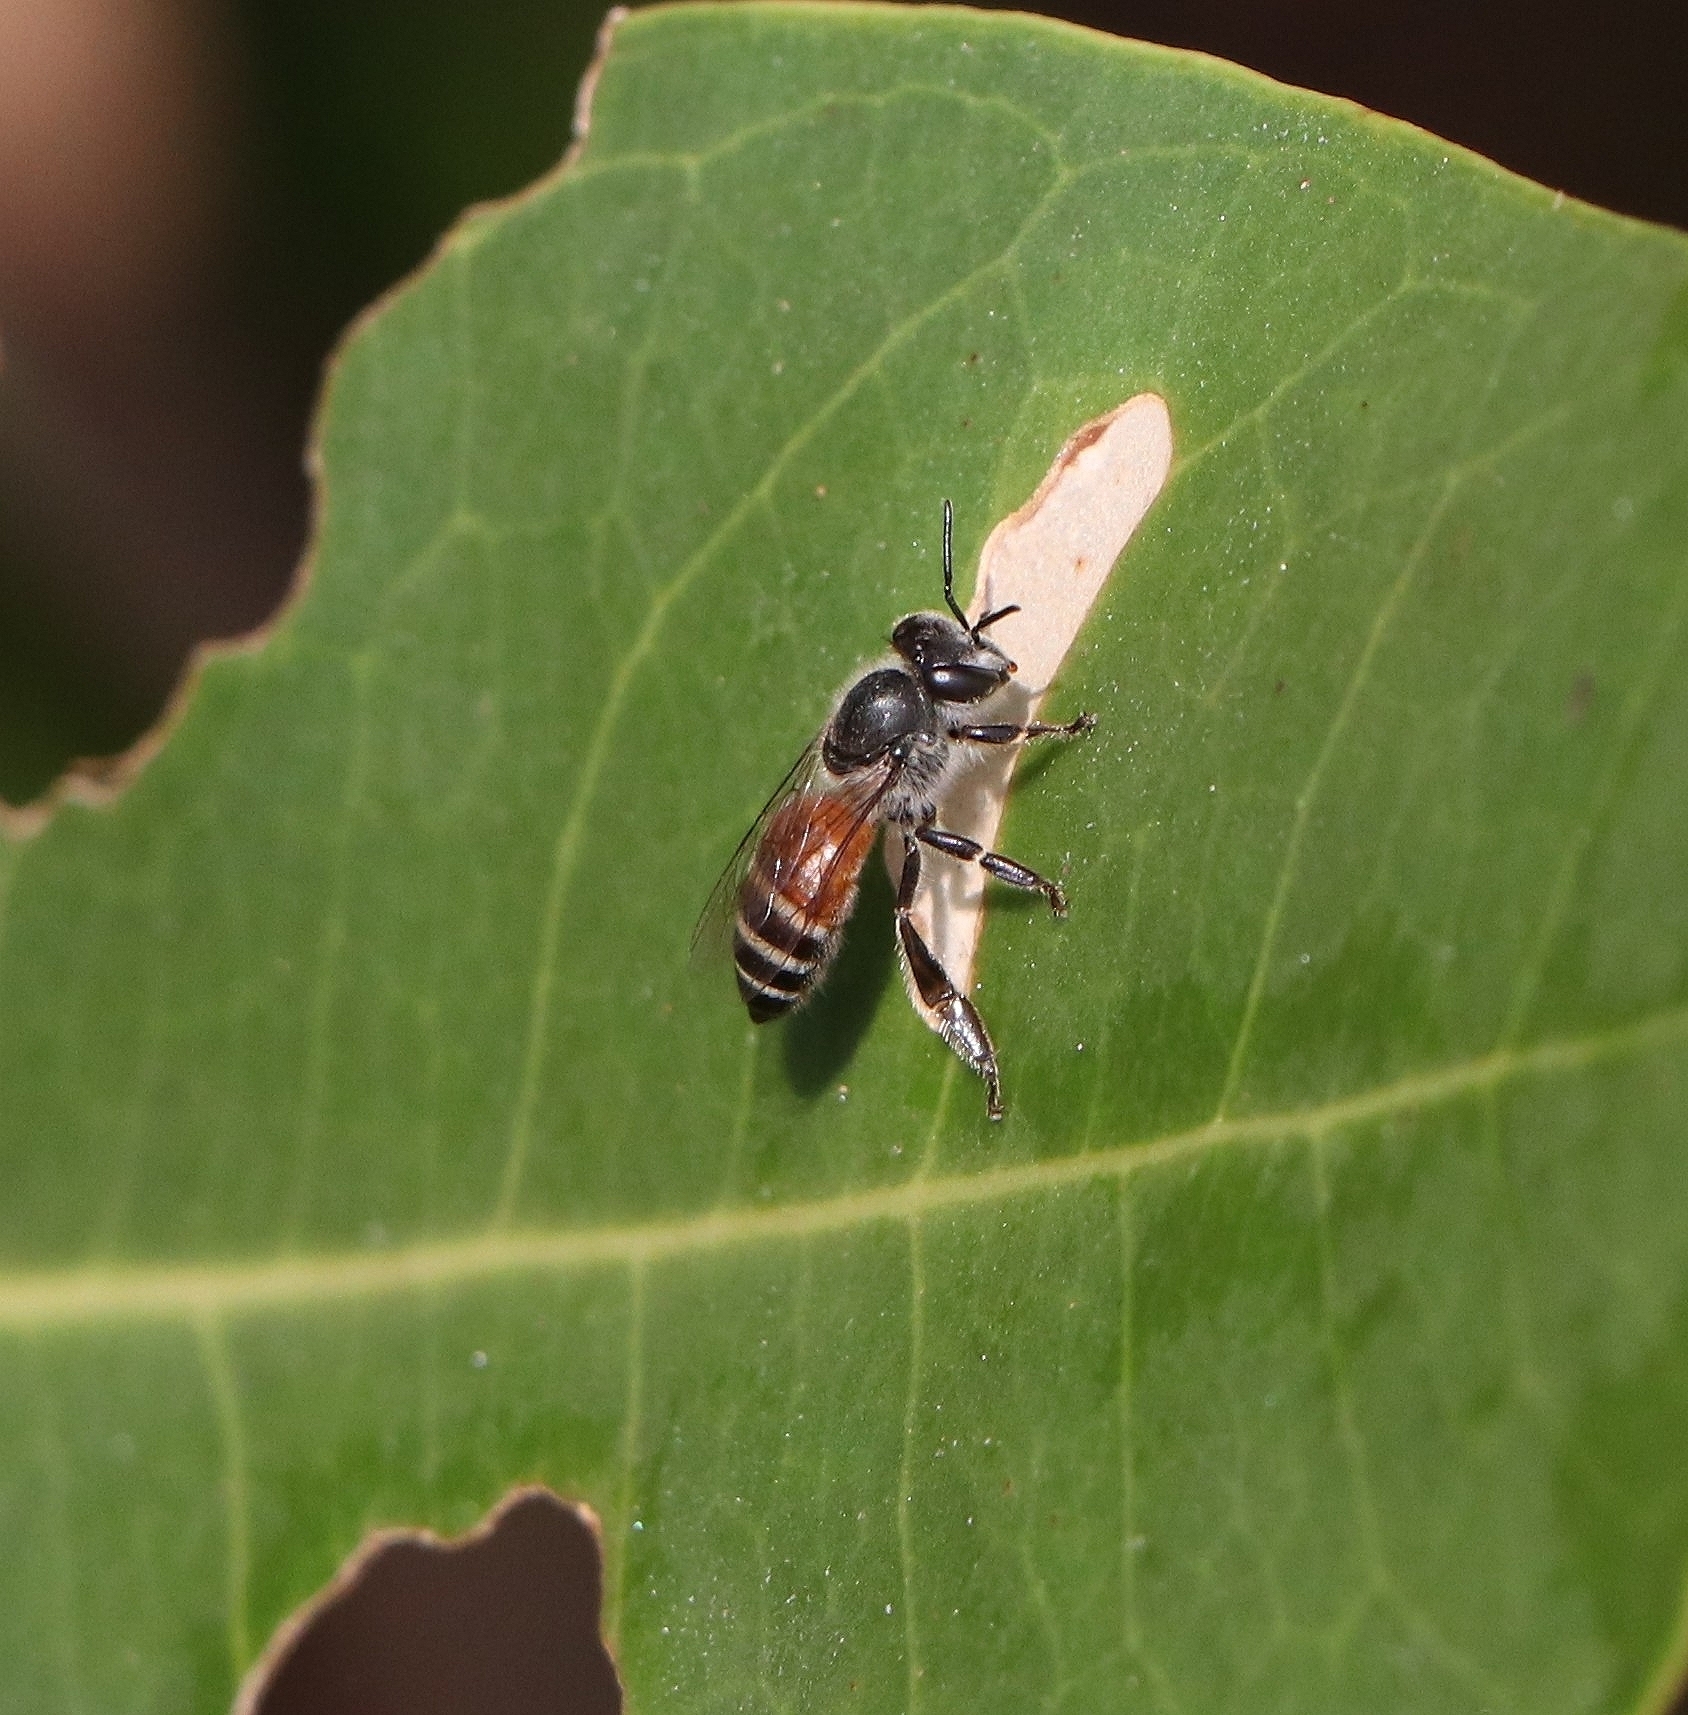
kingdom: Animalia
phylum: Arthropoda
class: Insecta
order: Hymenoptera
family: Apidae
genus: Apis
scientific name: Apis florea
